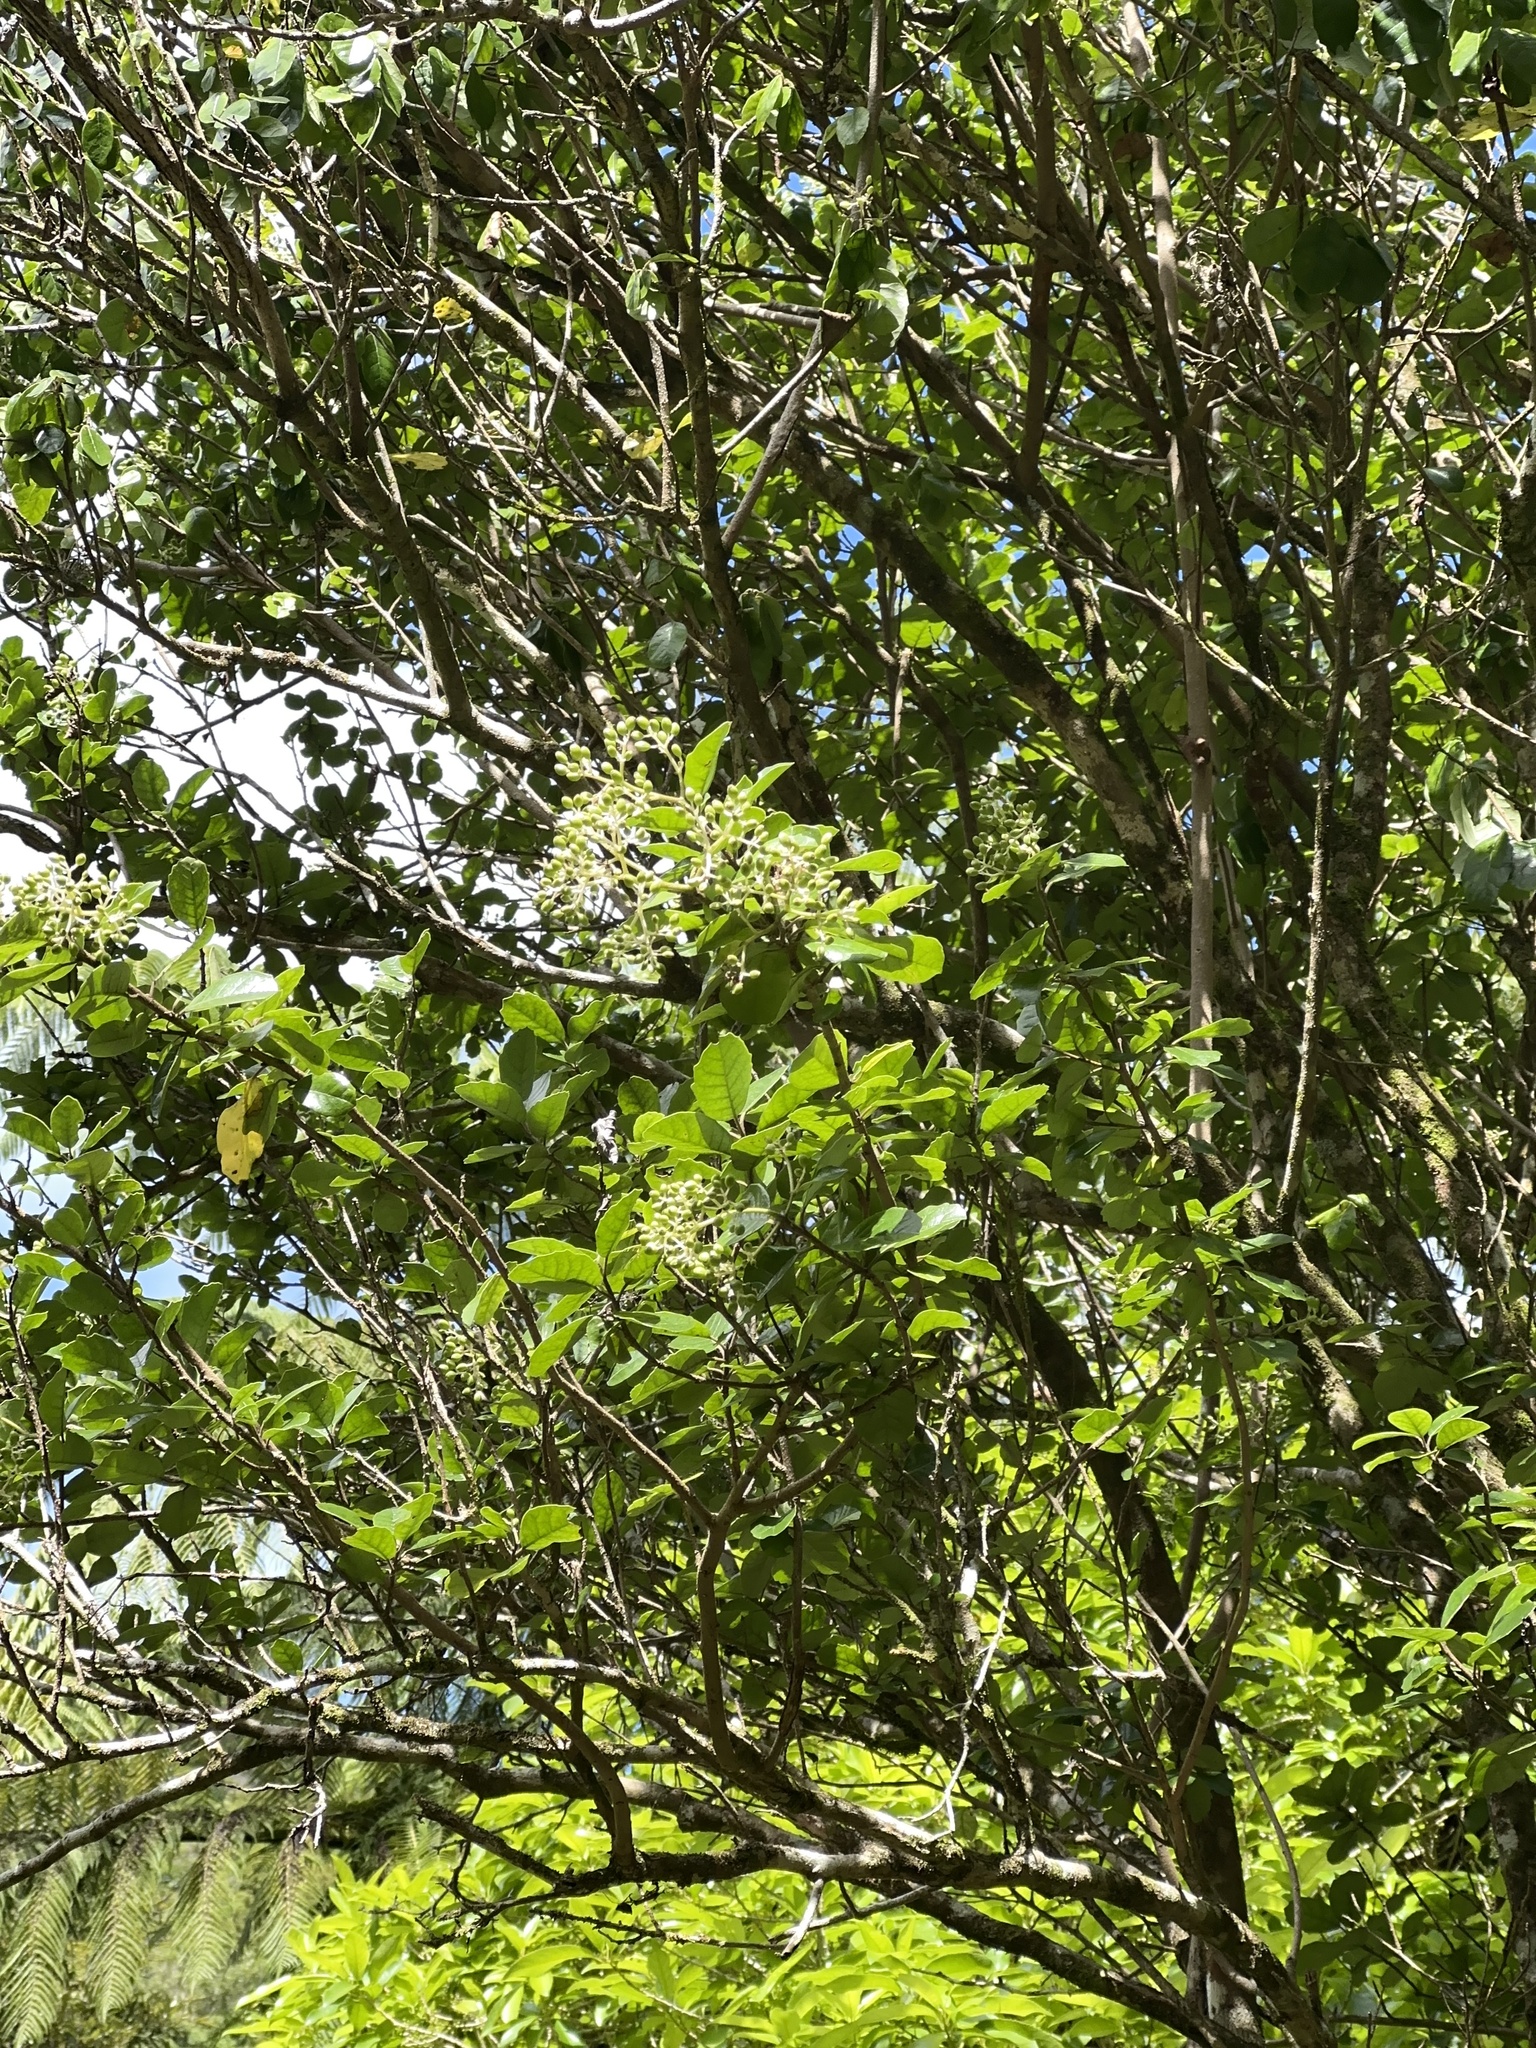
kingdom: Plantae
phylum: Tracheophyta
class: Magnoliopsida
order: Apiales
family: Pennantiaceae
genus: Pennantia
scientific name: Pennantia corymbosa
